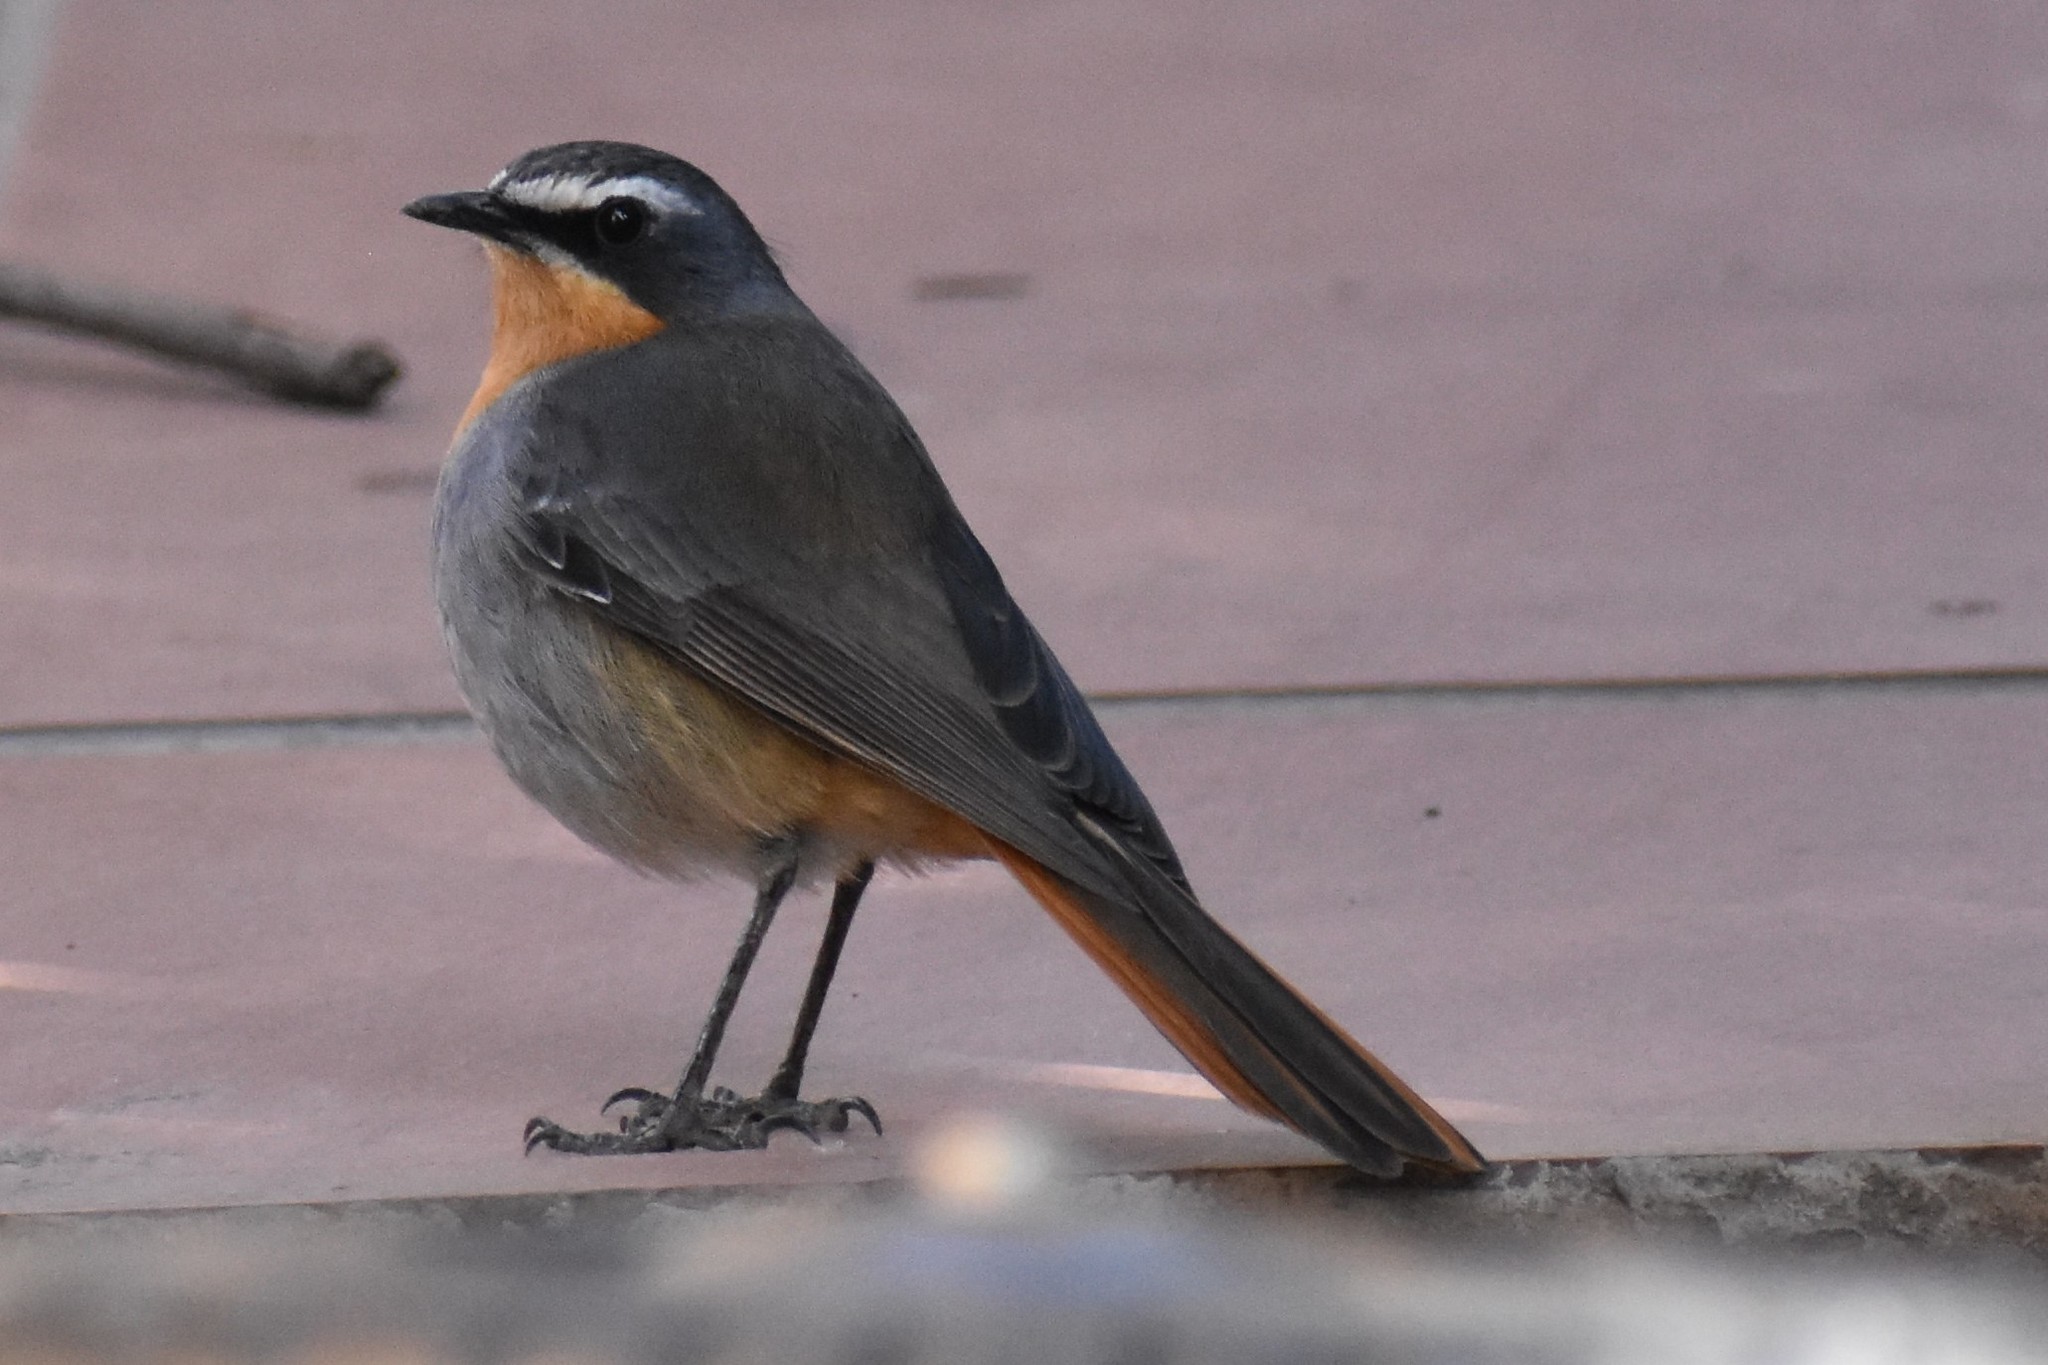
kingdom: Animalia
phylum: Chordata
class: Aves
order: Passeriformes
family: Muscicapidae
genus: Cossypha
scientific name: Cossypha caffra
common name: Cape robin-chat
